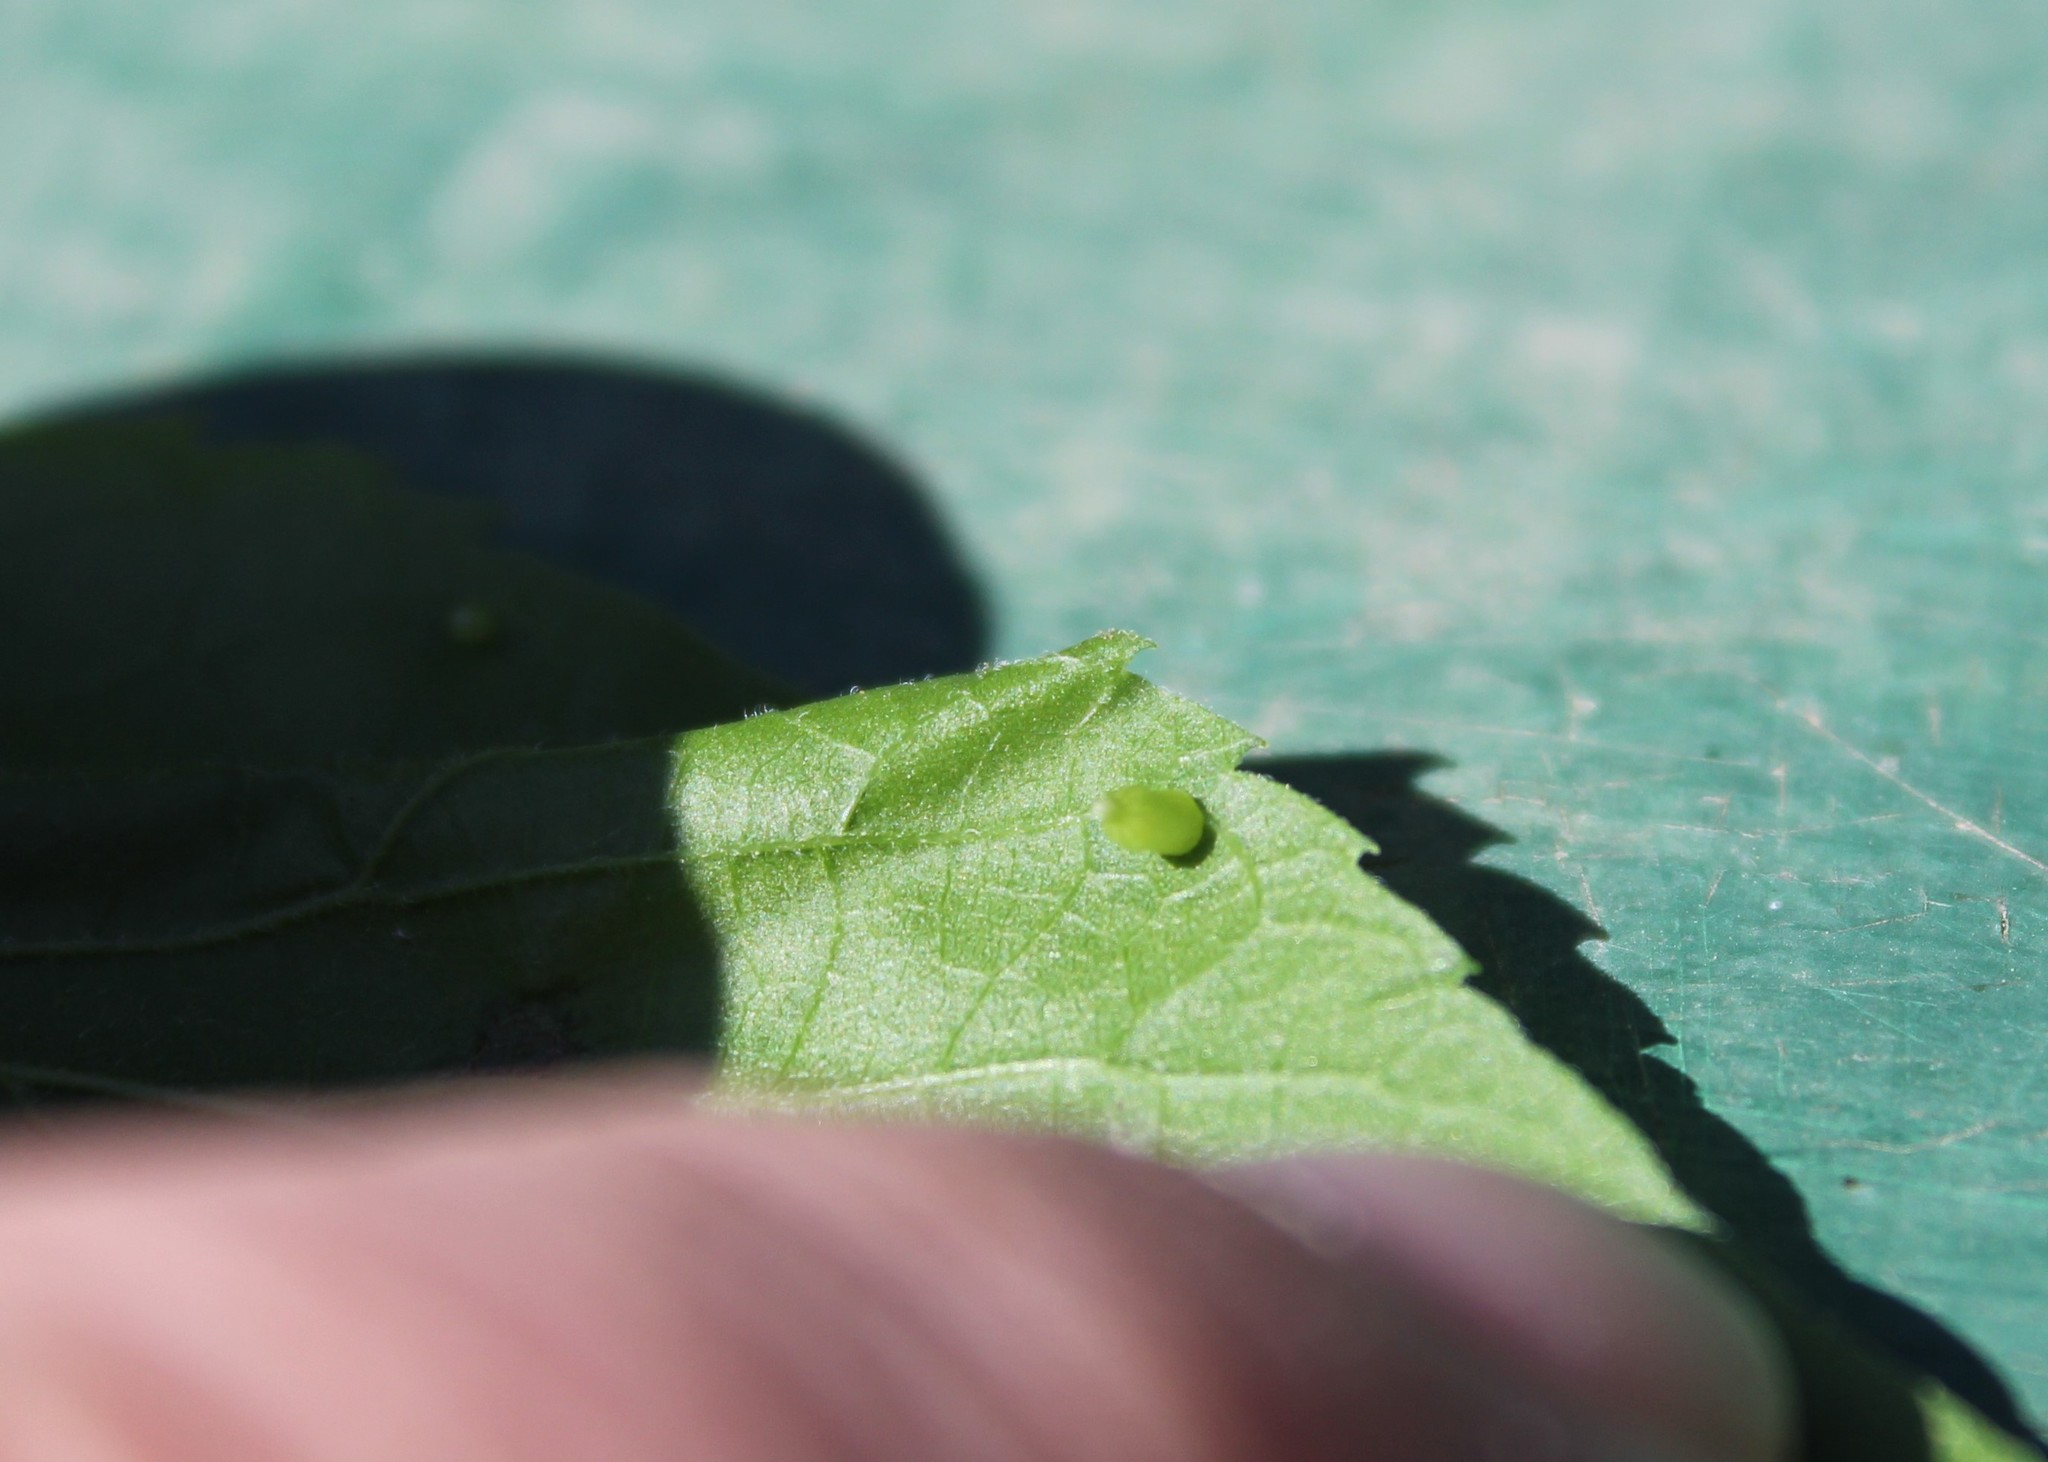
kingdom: Animalia
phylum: Arthropoda
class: Insecta
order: Diptera
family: Cecidomyiidae
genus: Celticecis
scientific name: Celticecis aciculata
